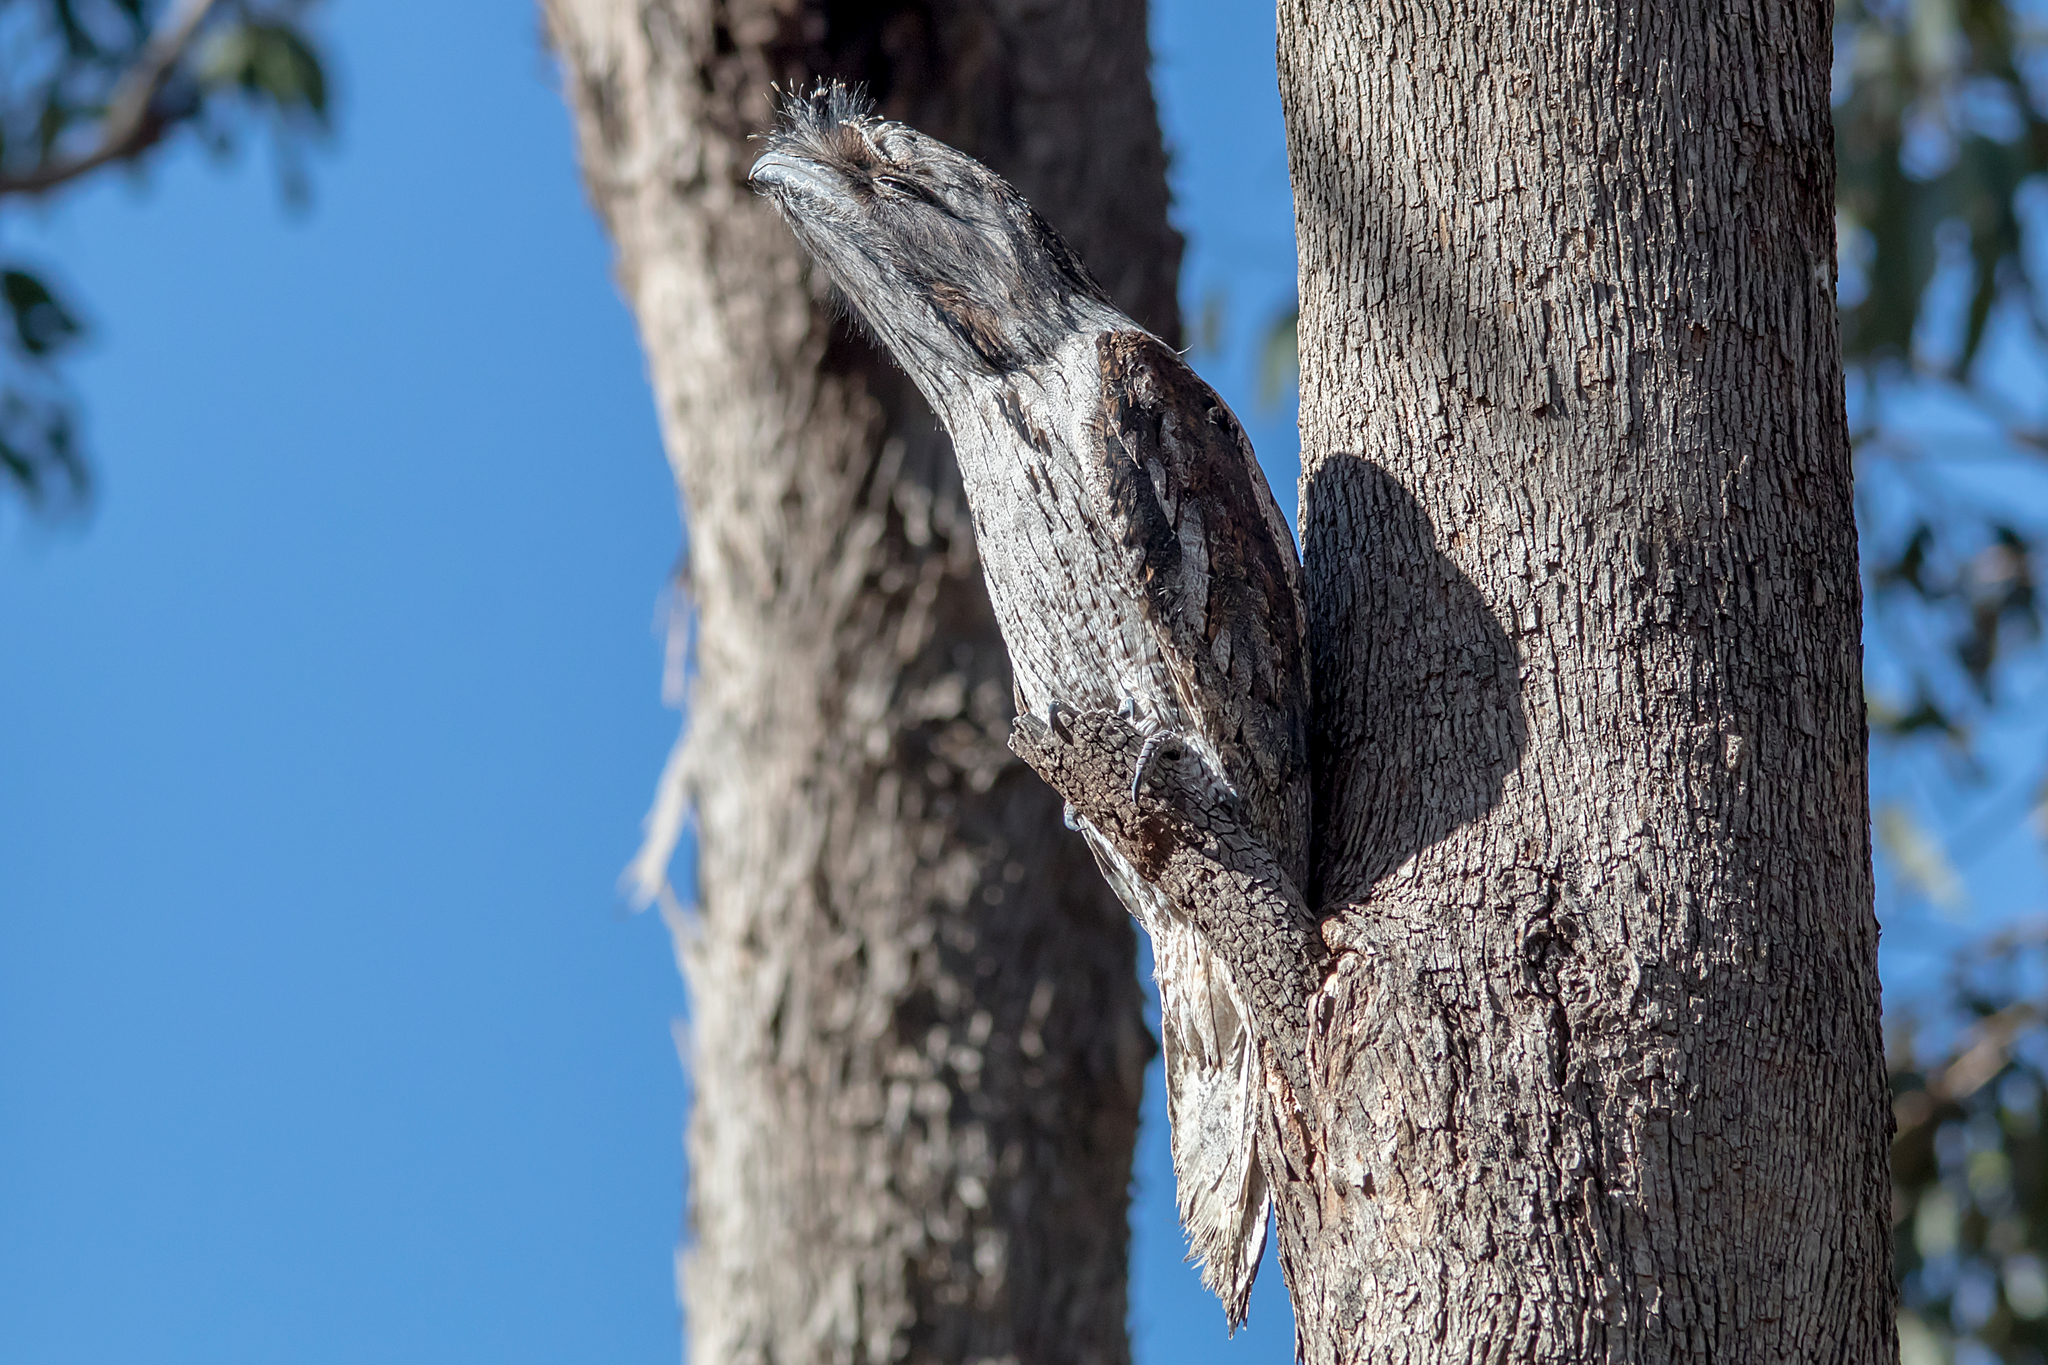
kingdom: Animalia
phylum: Chordata
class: Aves
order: Caprimulgiformes
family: Podargidae
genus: Podargus
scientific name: Podargus strigoides
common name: Tawny frogmouth
